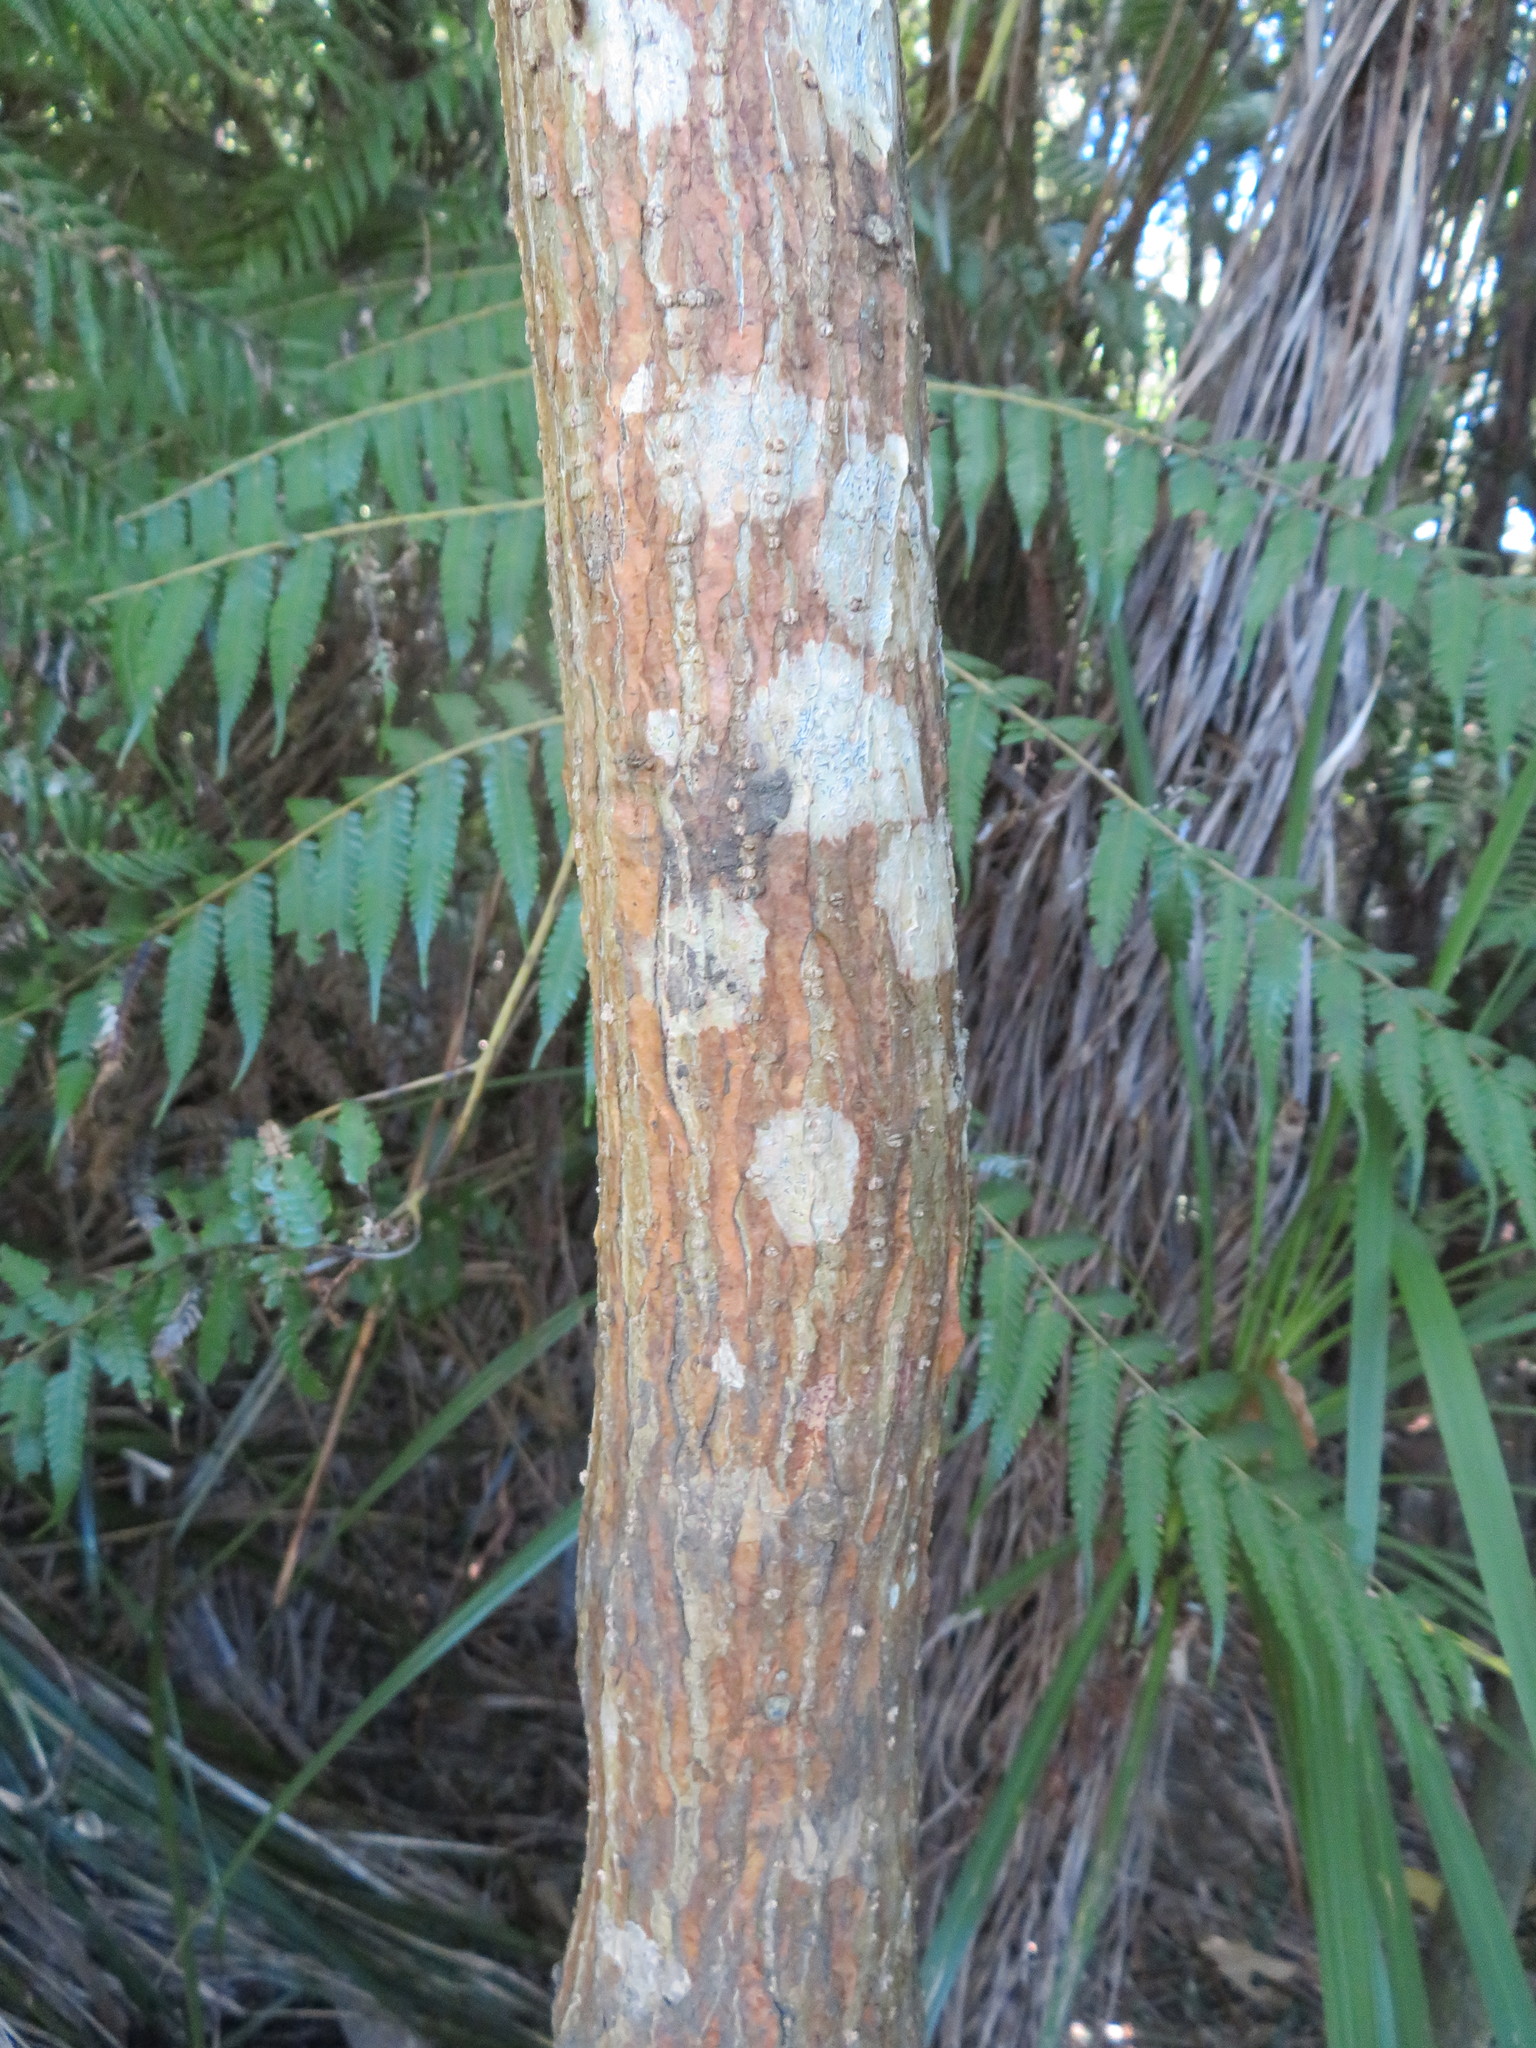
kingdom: Plantae
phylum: Tracheophyta
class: Magnoliopsida
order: Fabales
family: Fabaceae
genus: Erythrina
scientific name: Erythrina sykesii
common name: Coraltree
